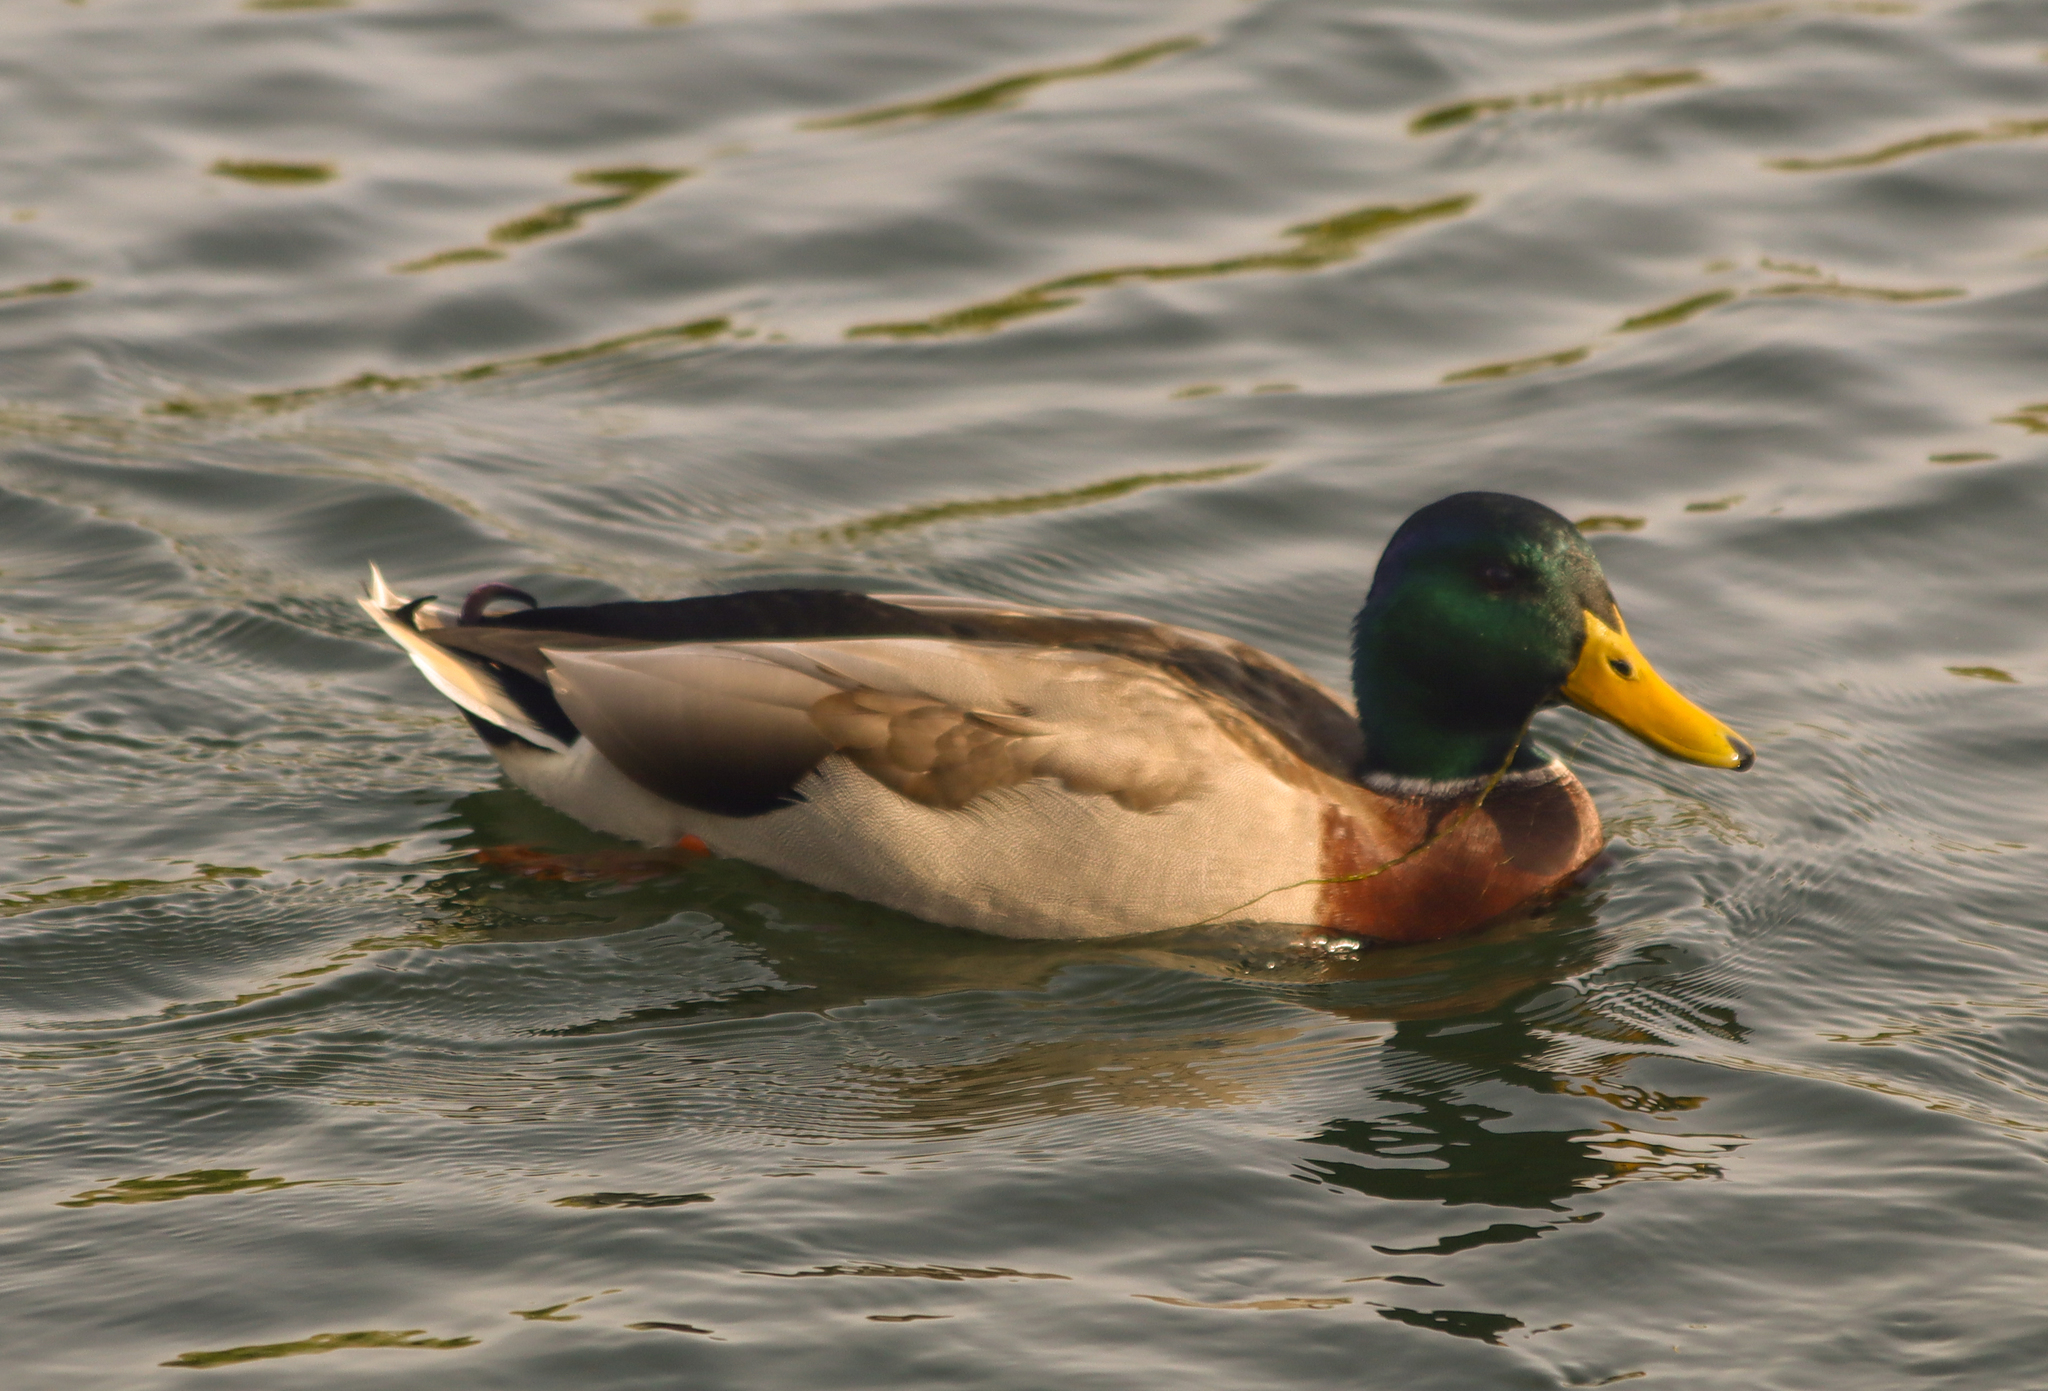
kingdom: Animalia
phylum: Chordata
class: Aves
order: Anseriformes
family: Anatidae
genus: Anas
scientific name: Anas platyrhynchos
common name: Mallard
